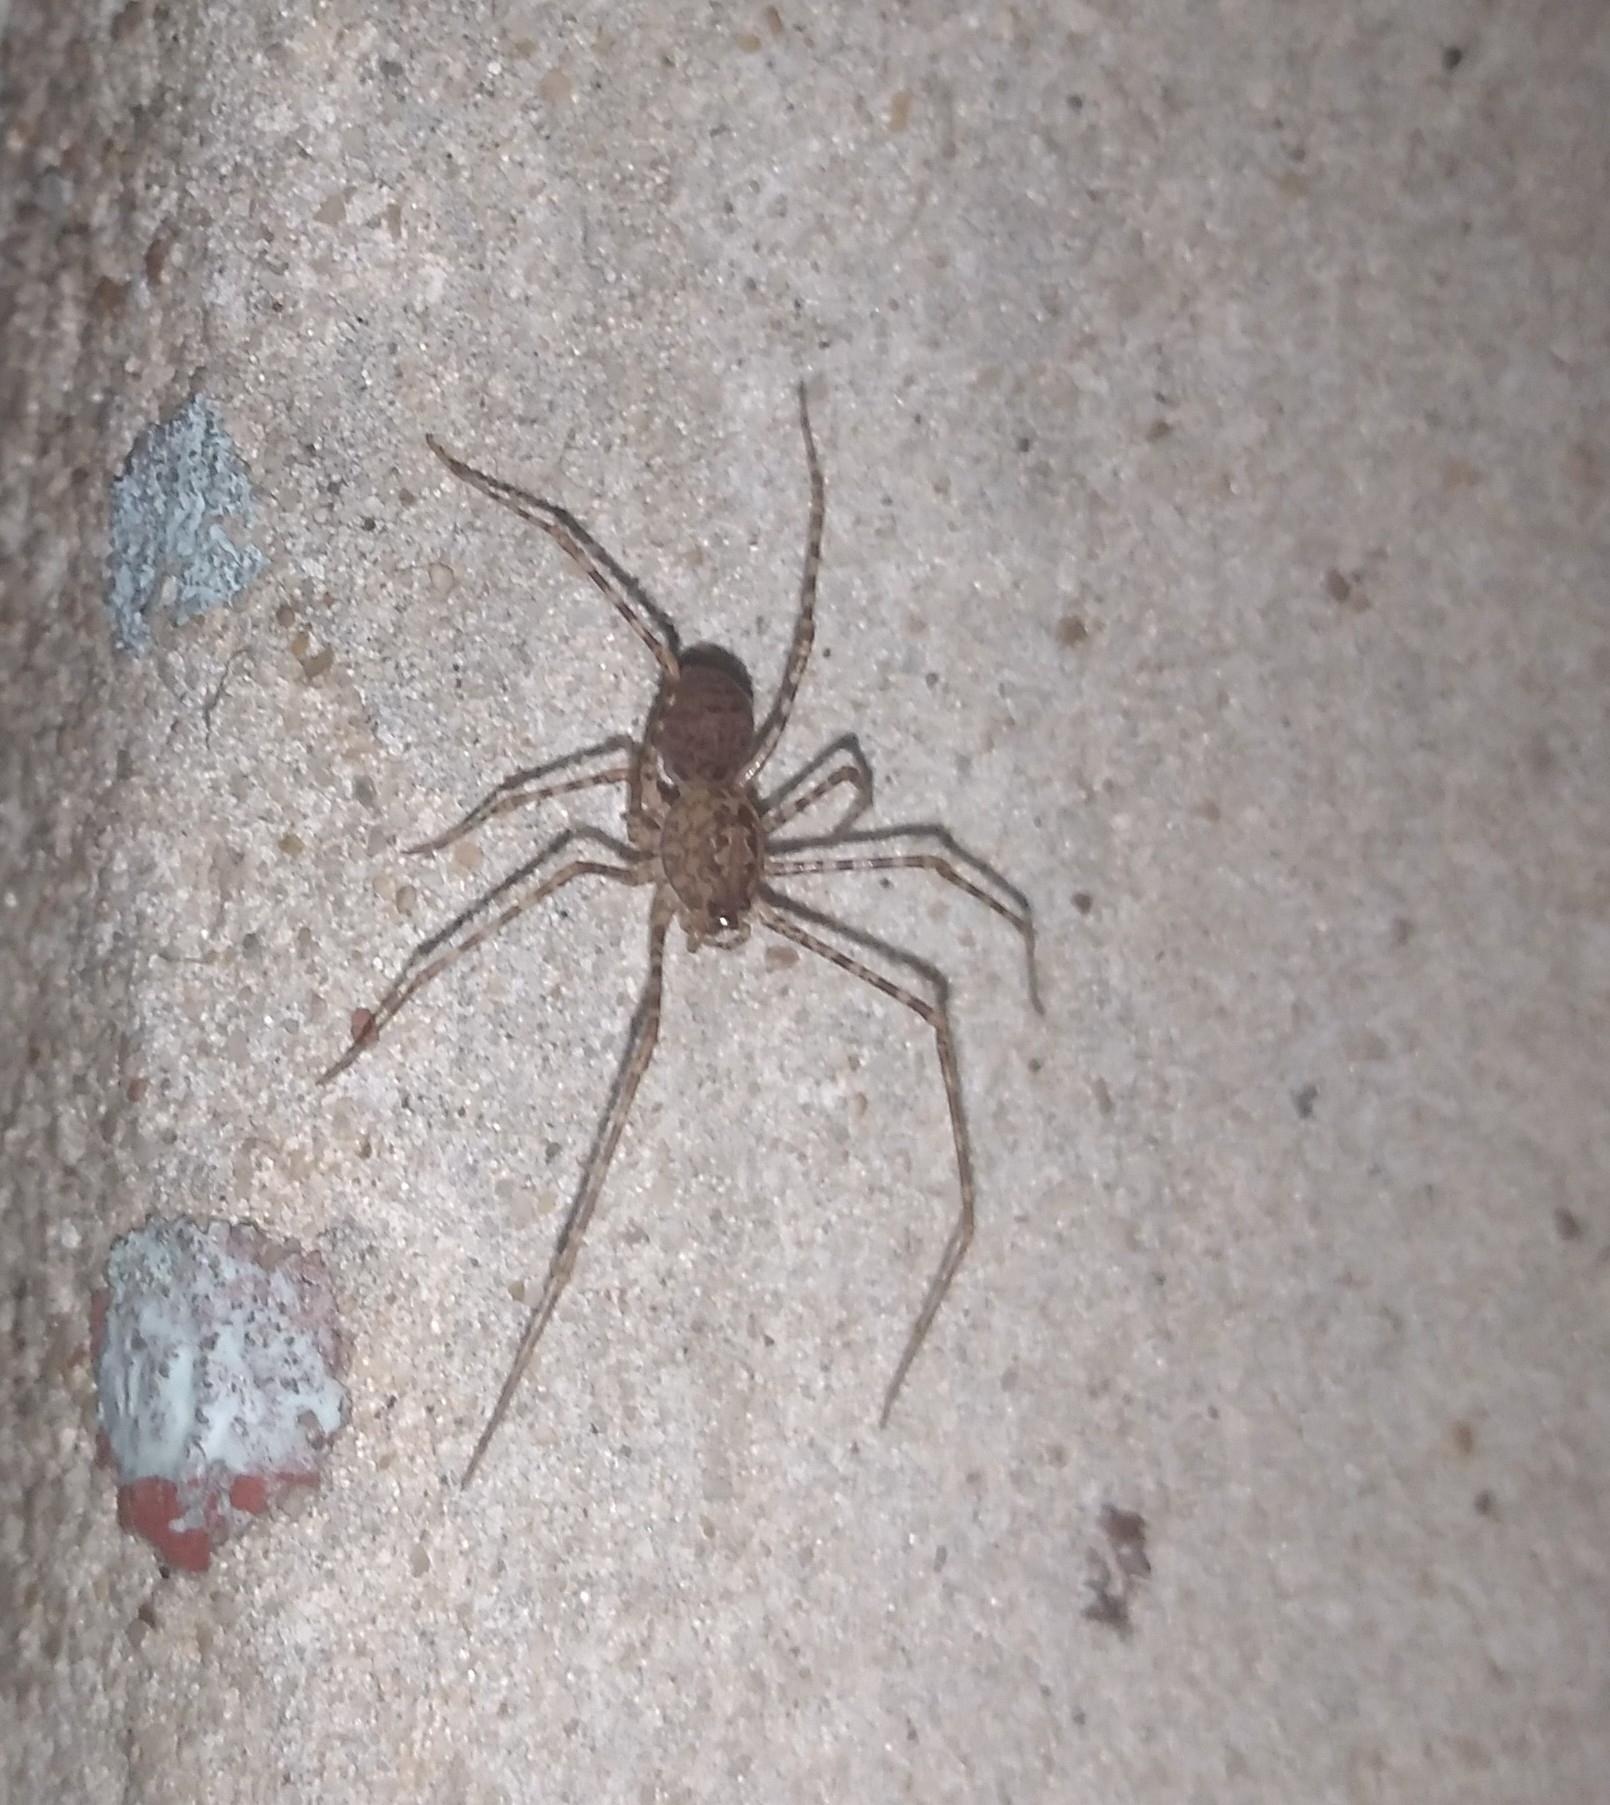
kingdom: Animalia
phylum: Arthropoda
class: Arachnida
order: Araneae
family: Scytodidae
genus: Scytodes
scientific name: Scytodes globula
